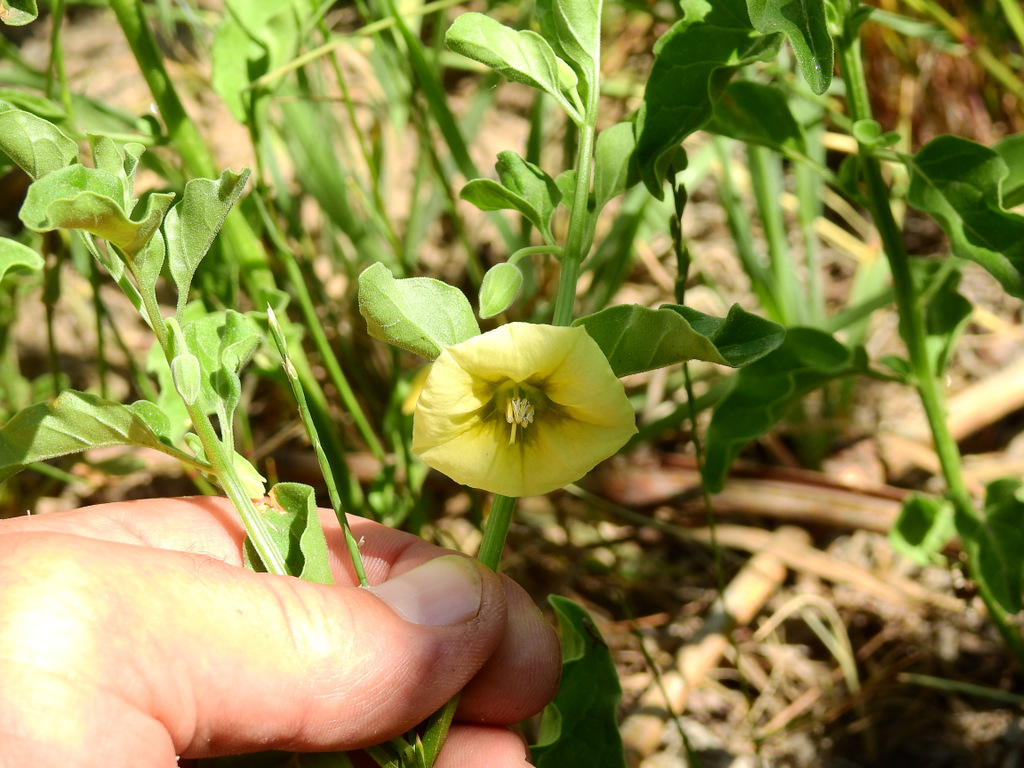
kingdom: Plantae
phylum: Tracheophyta
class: Magnoliopsida
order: Solanales
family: Solanaceae
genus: Physalis
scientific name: Physalis viscosa
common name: Stellate ground-cherry
